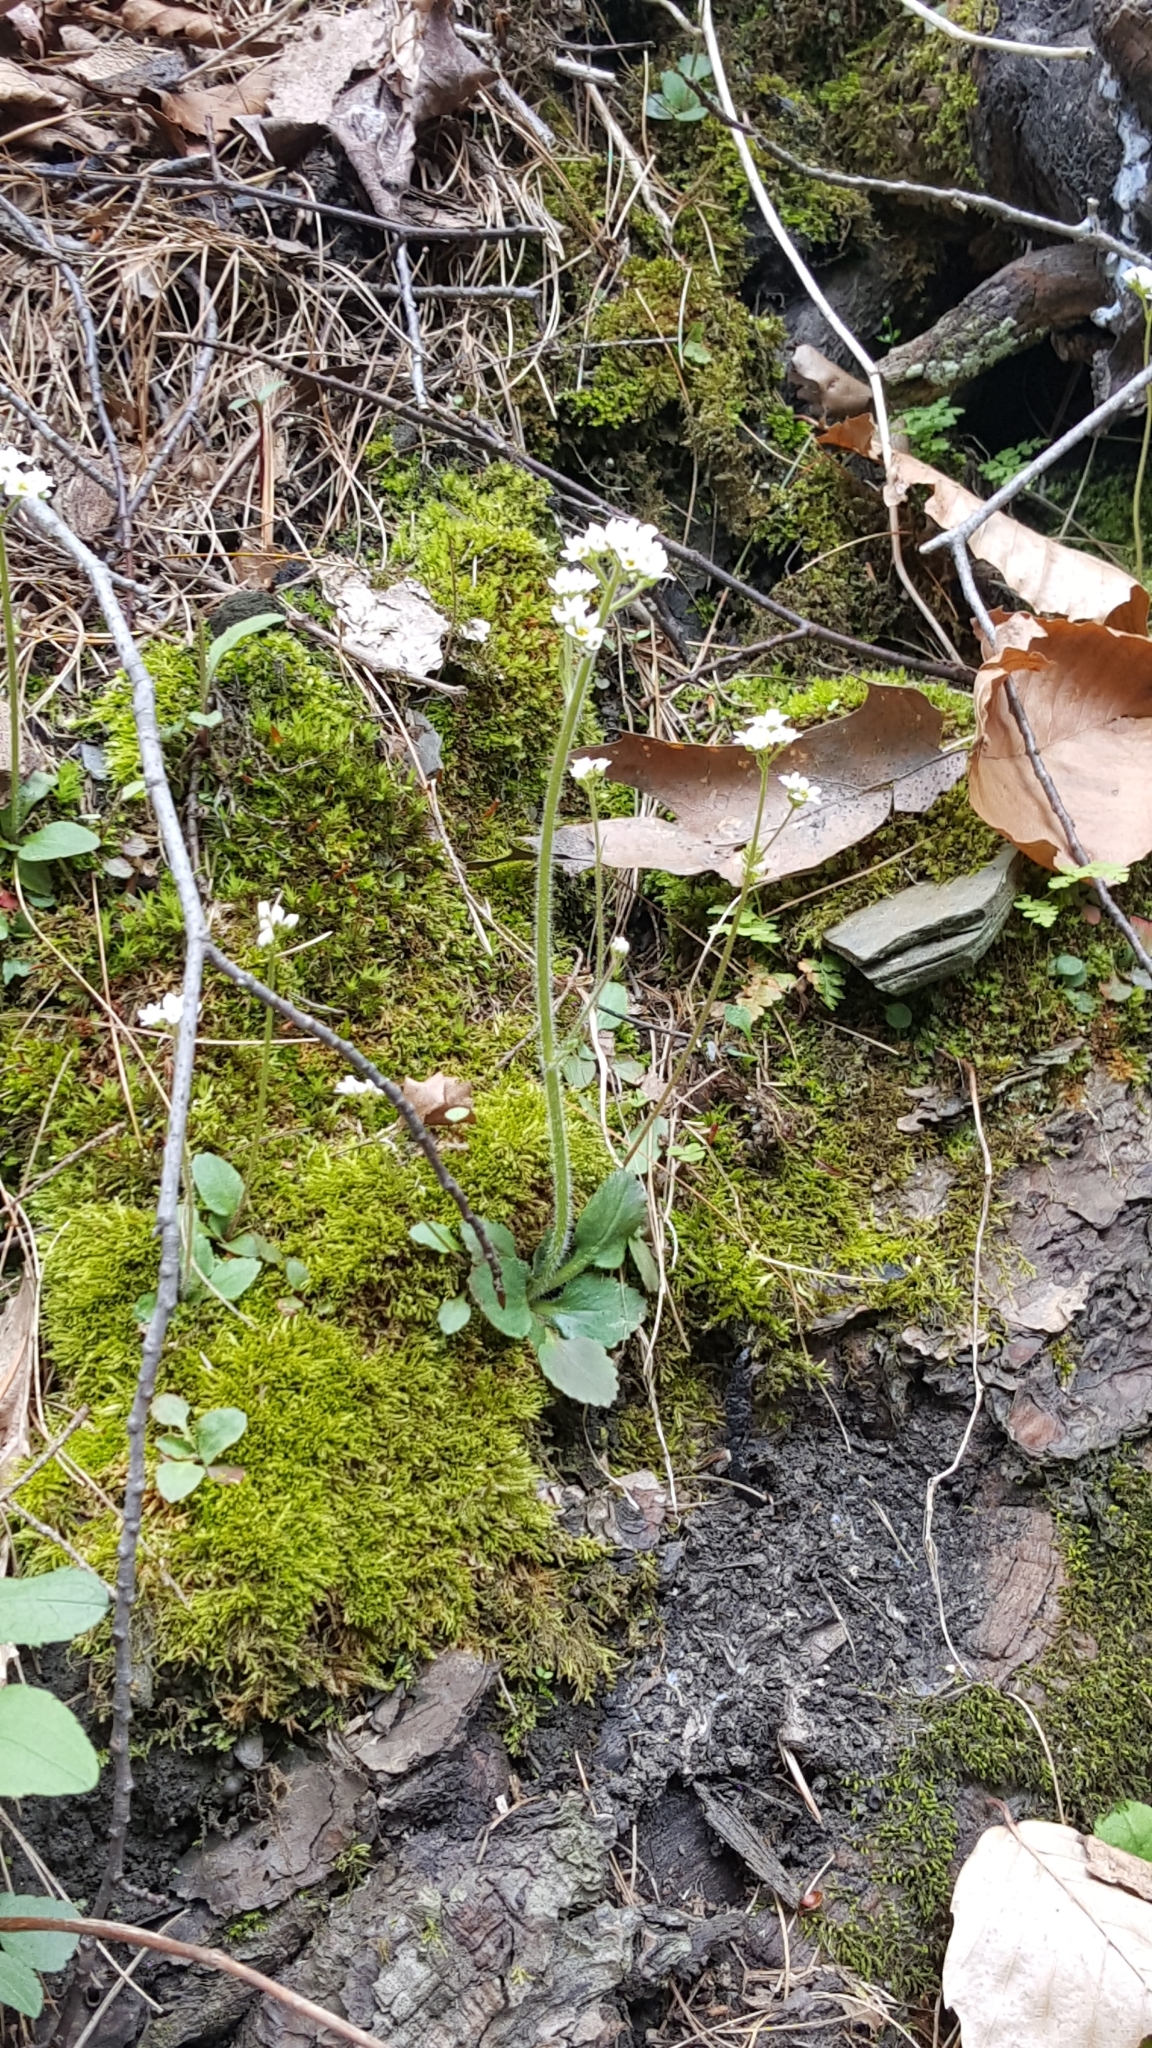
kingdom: Plantae
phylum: Tracheophyta
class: Magnoliopsida
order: Saxifragales
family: Saxifragaceae
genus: Micranthes
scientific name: Micranthes virginiensis
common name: Early saxifrage
